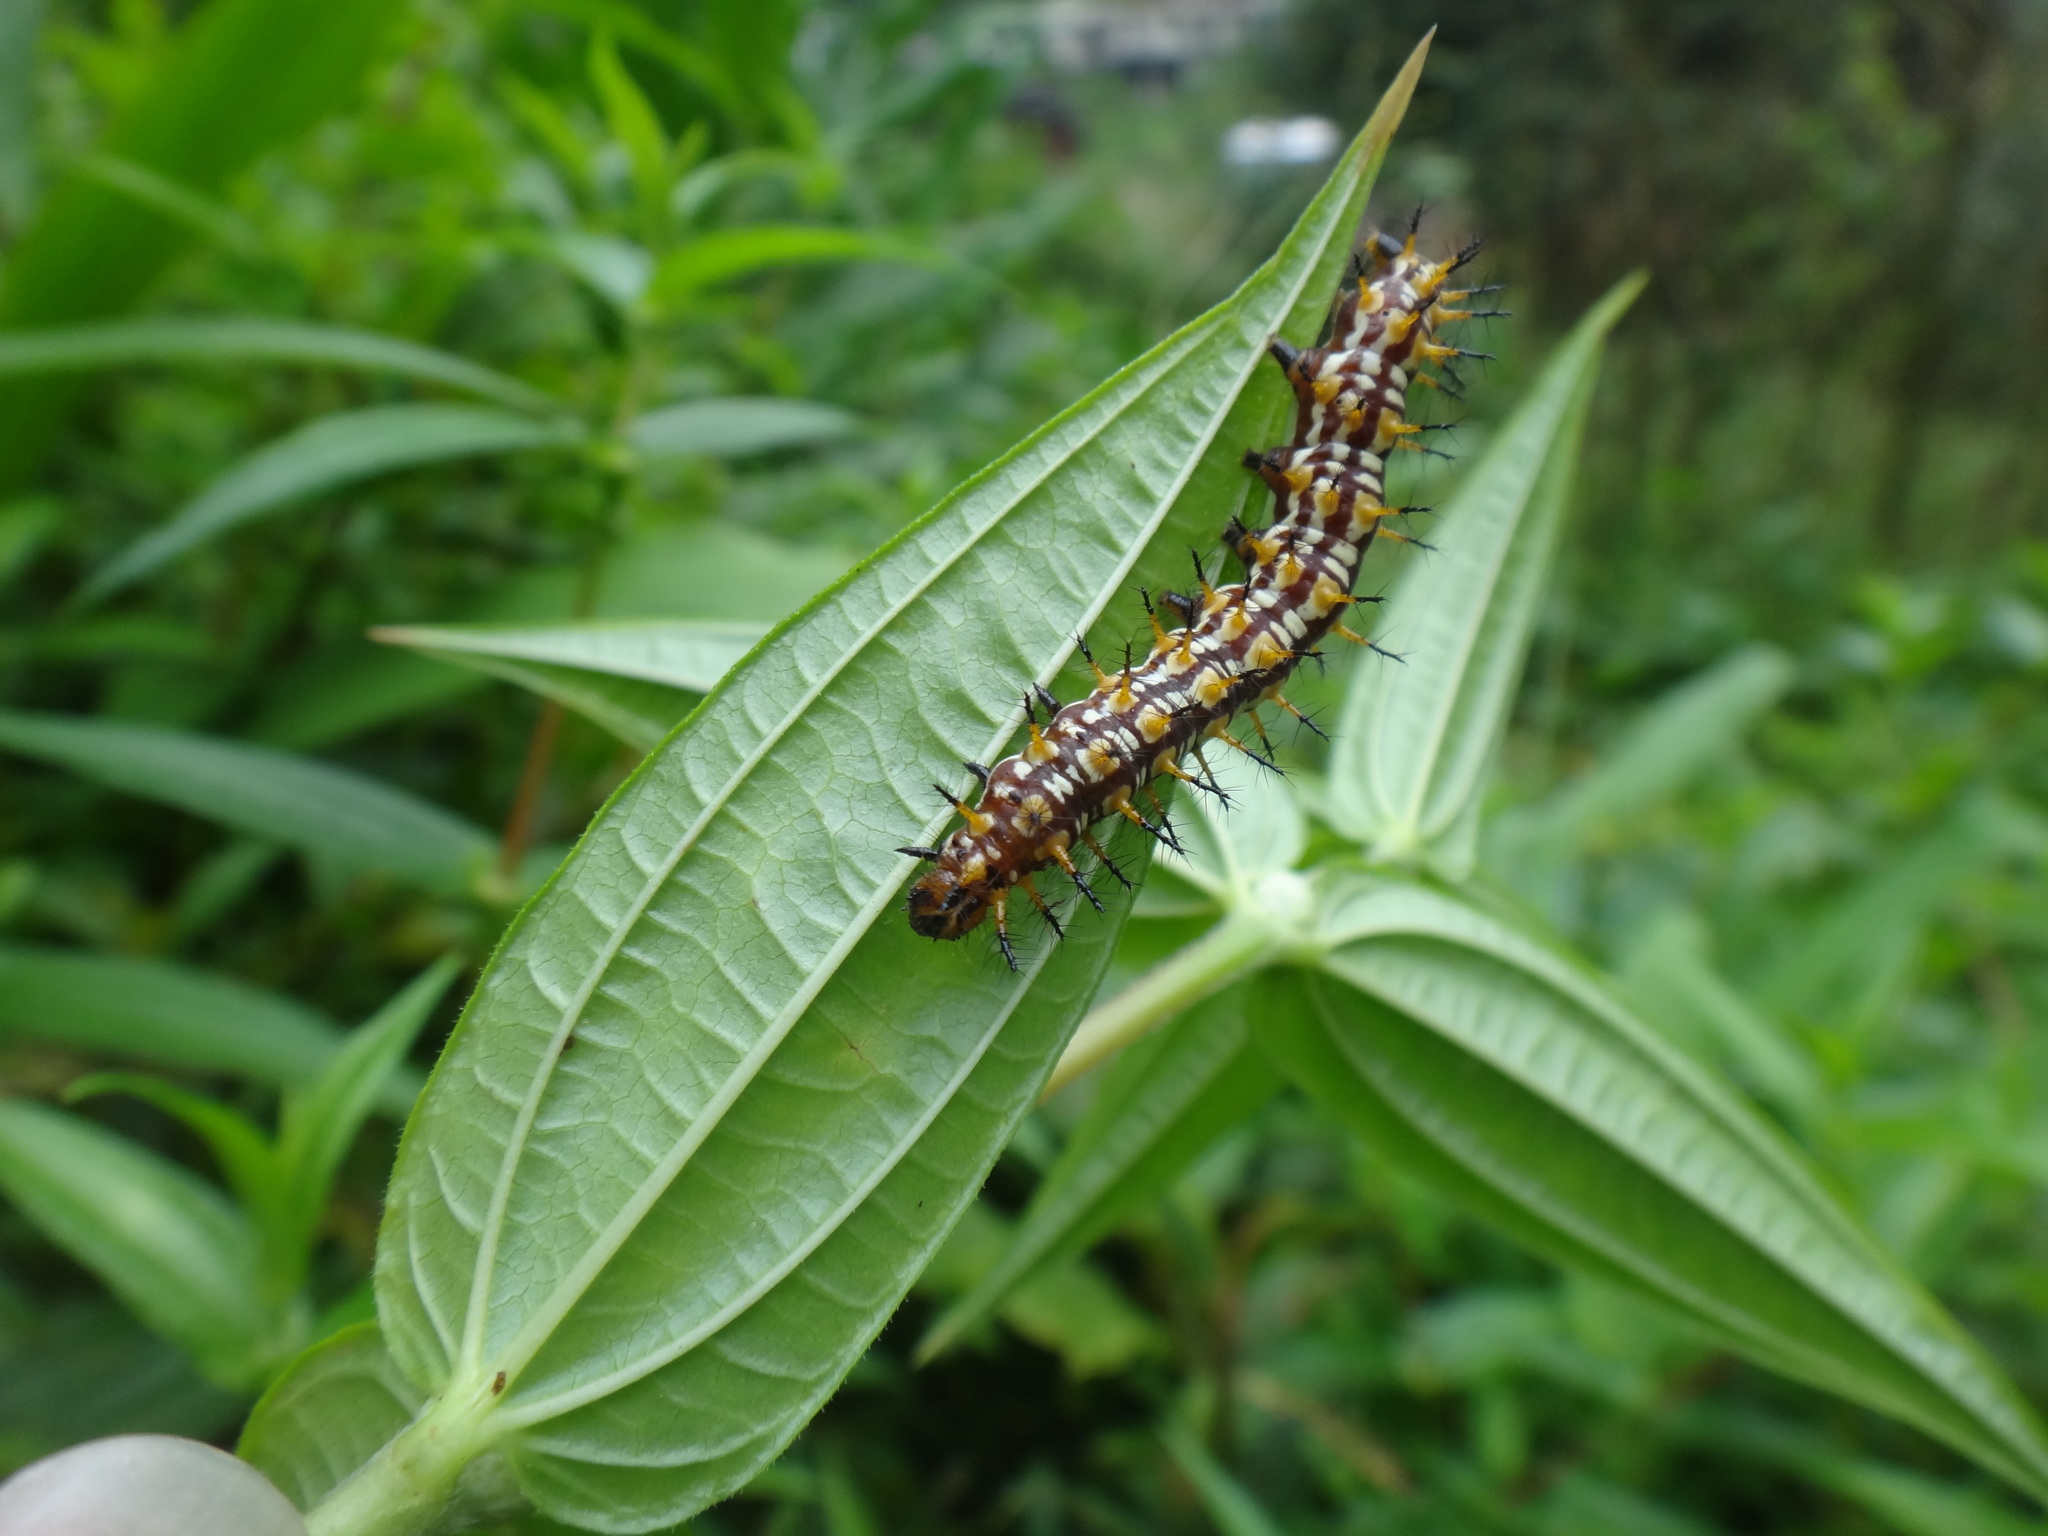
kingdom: Animalia
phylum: Arthropoda
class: Insecta
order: Lepidoptera
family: Nymphalidae
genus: Acraea
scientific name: Acraea Telchinia issoria
